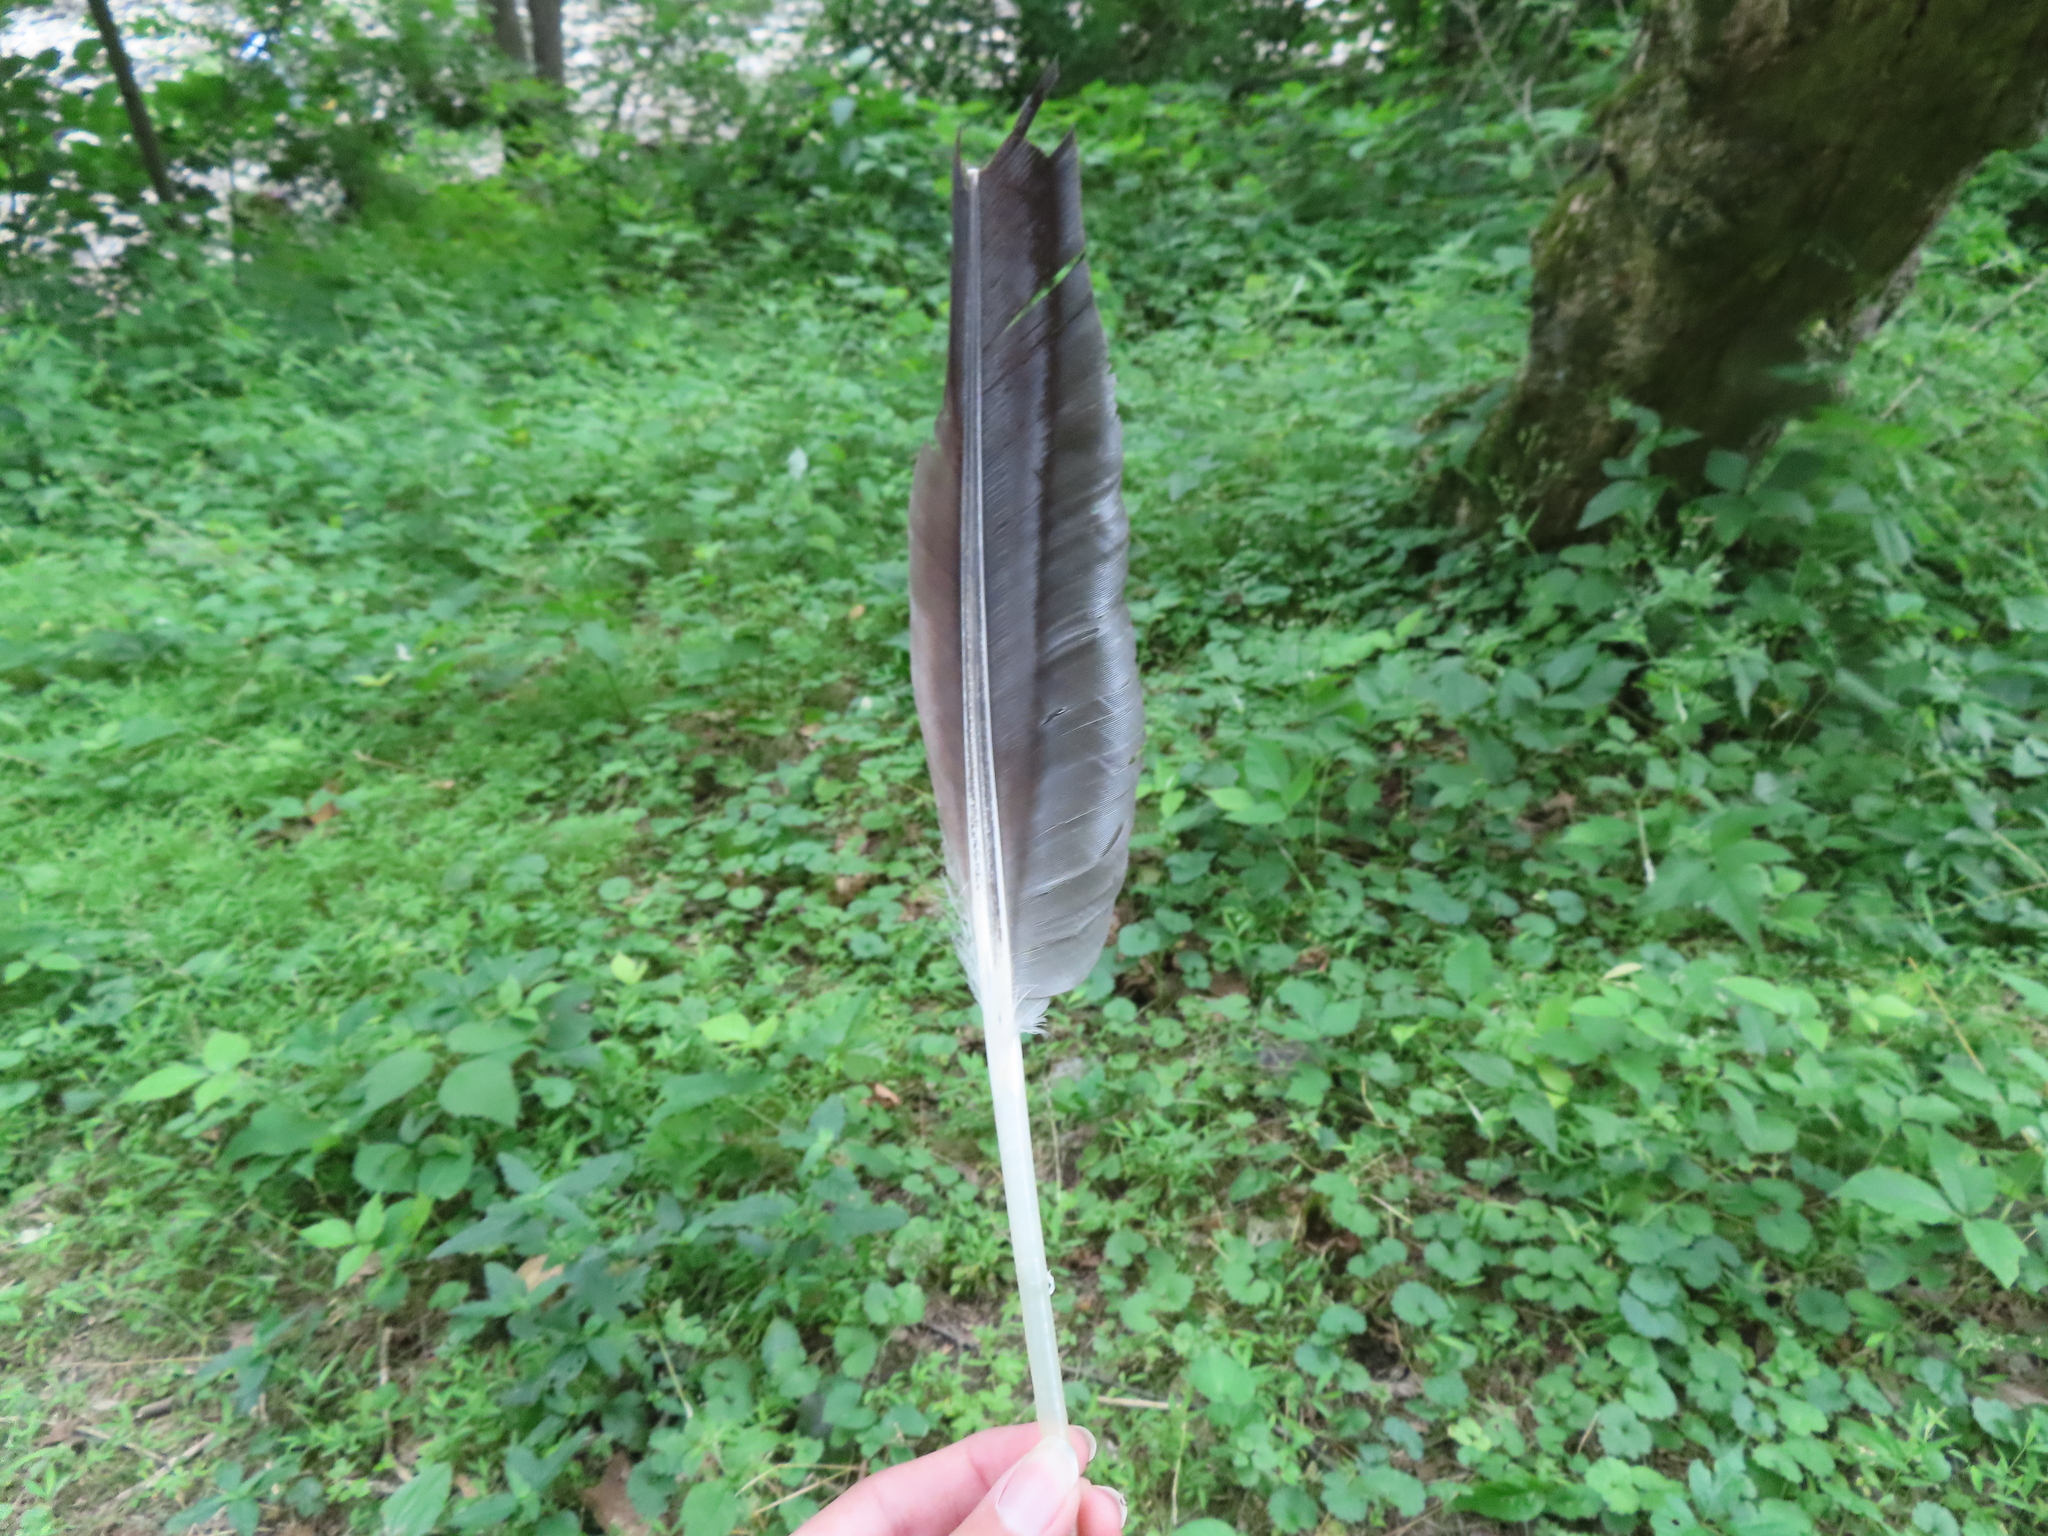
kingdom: Animalia
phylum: Chordata
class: Aves
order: Anseriformes
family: Anatidae
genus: Branta
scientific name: Branta canadensis
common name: Canada goose
